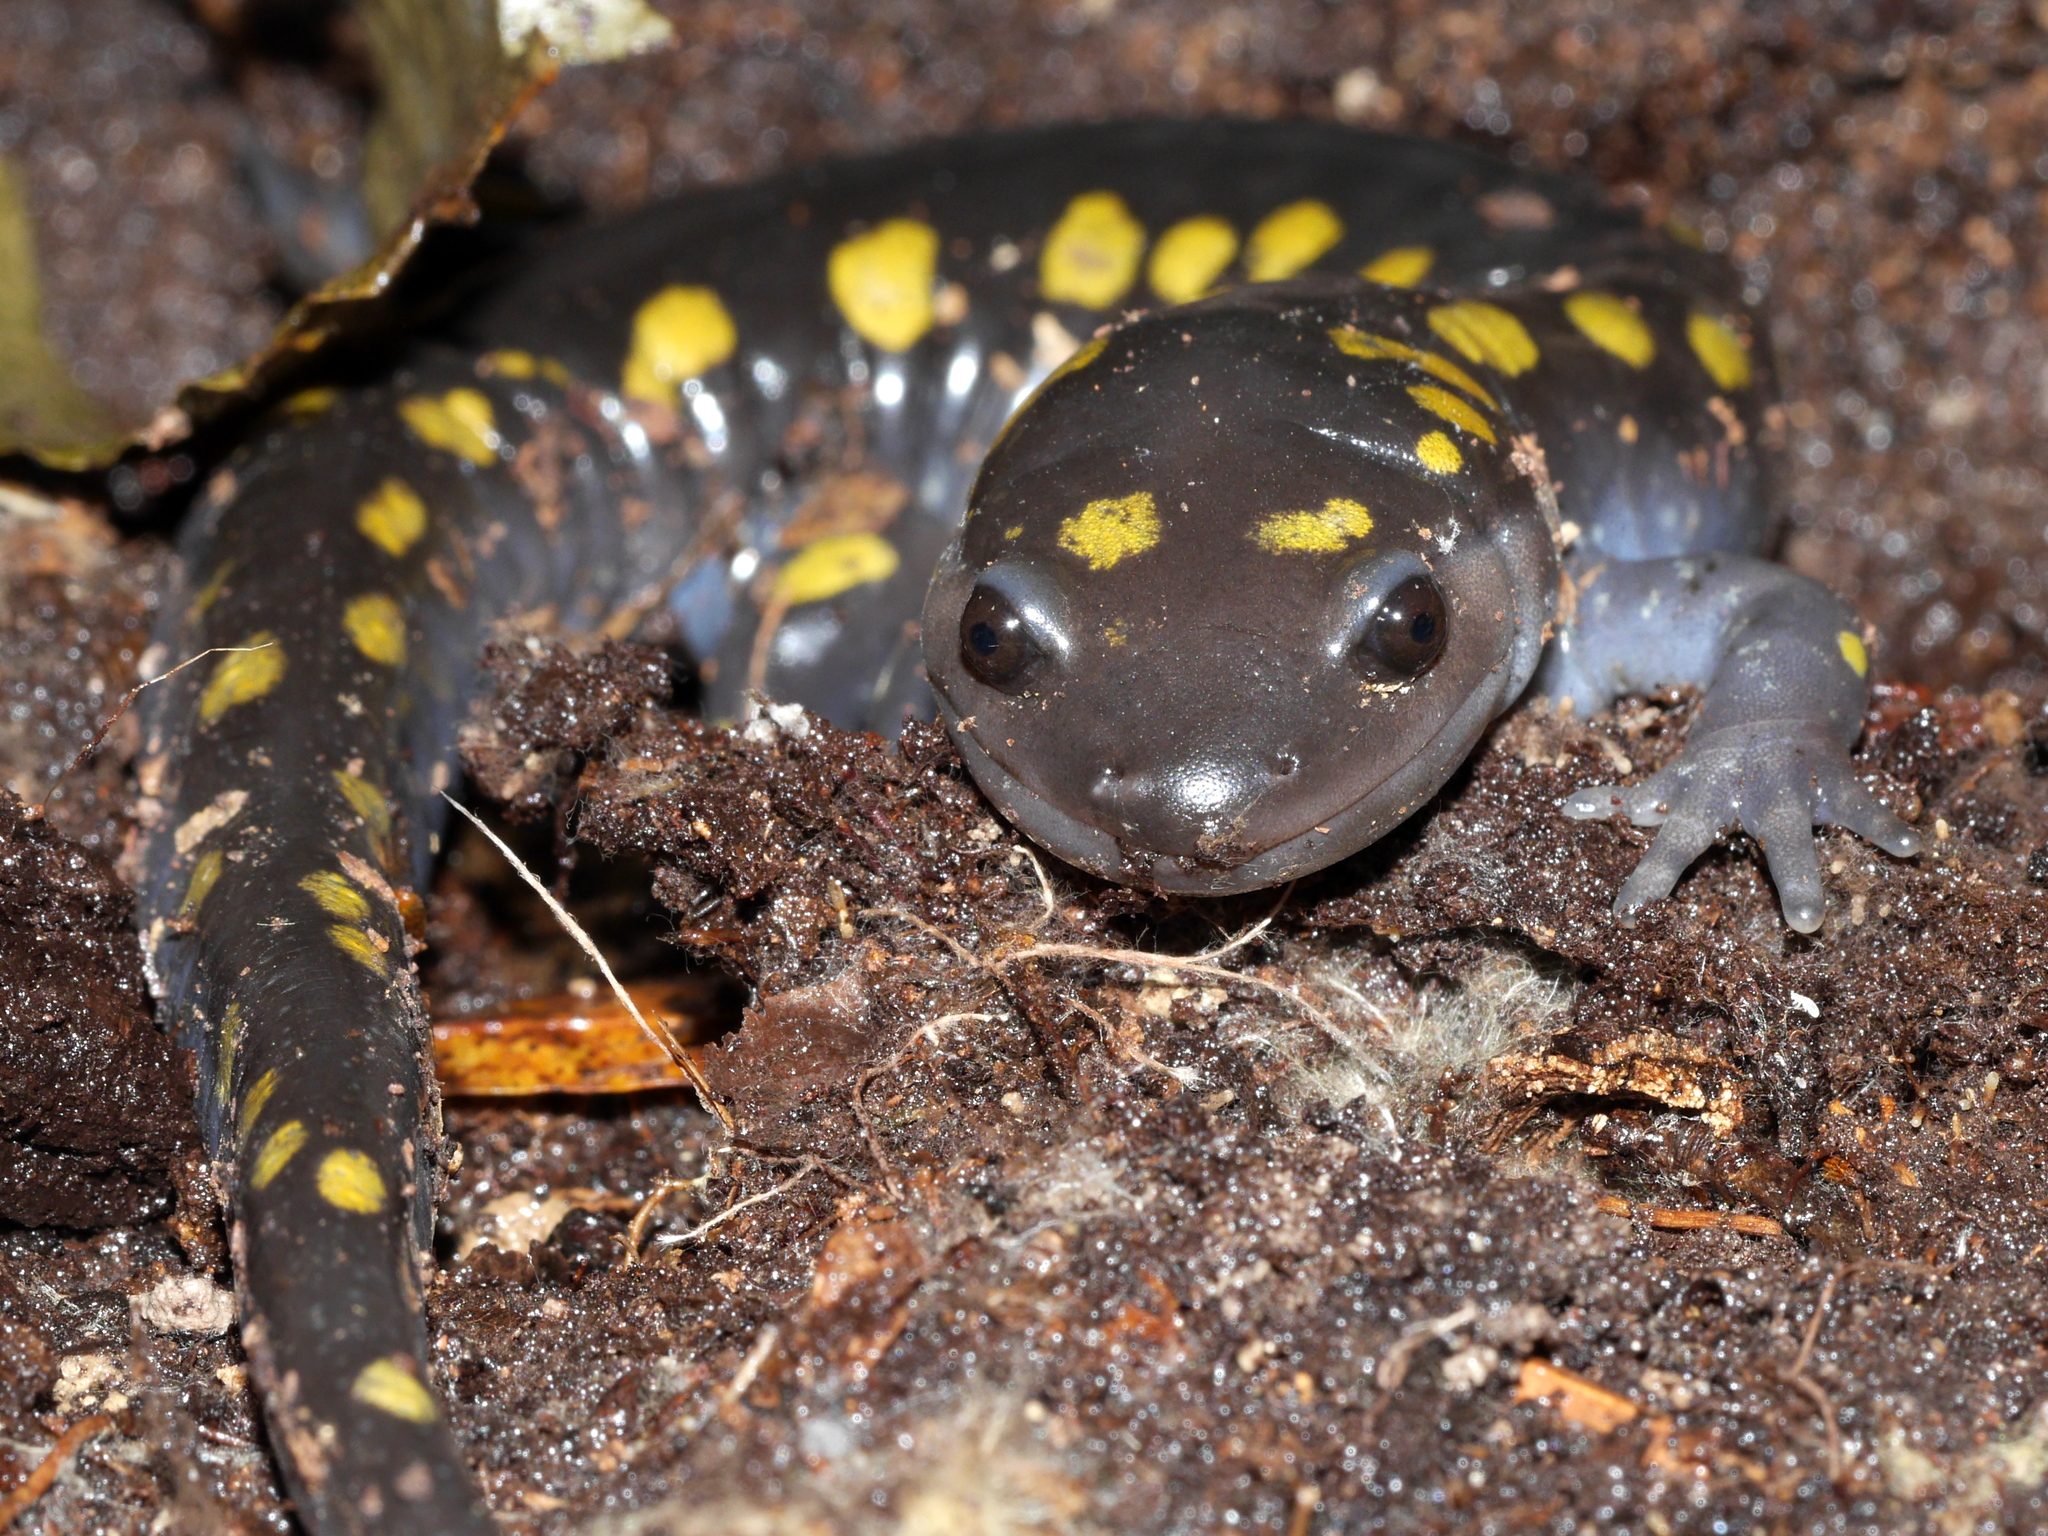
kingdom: Animalia
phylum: Chordata
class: Amphibia
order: Caudata
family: Ambystomatidae
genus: Ambystoma
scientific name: Ambystoma maculatum
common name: Spotted salamander
